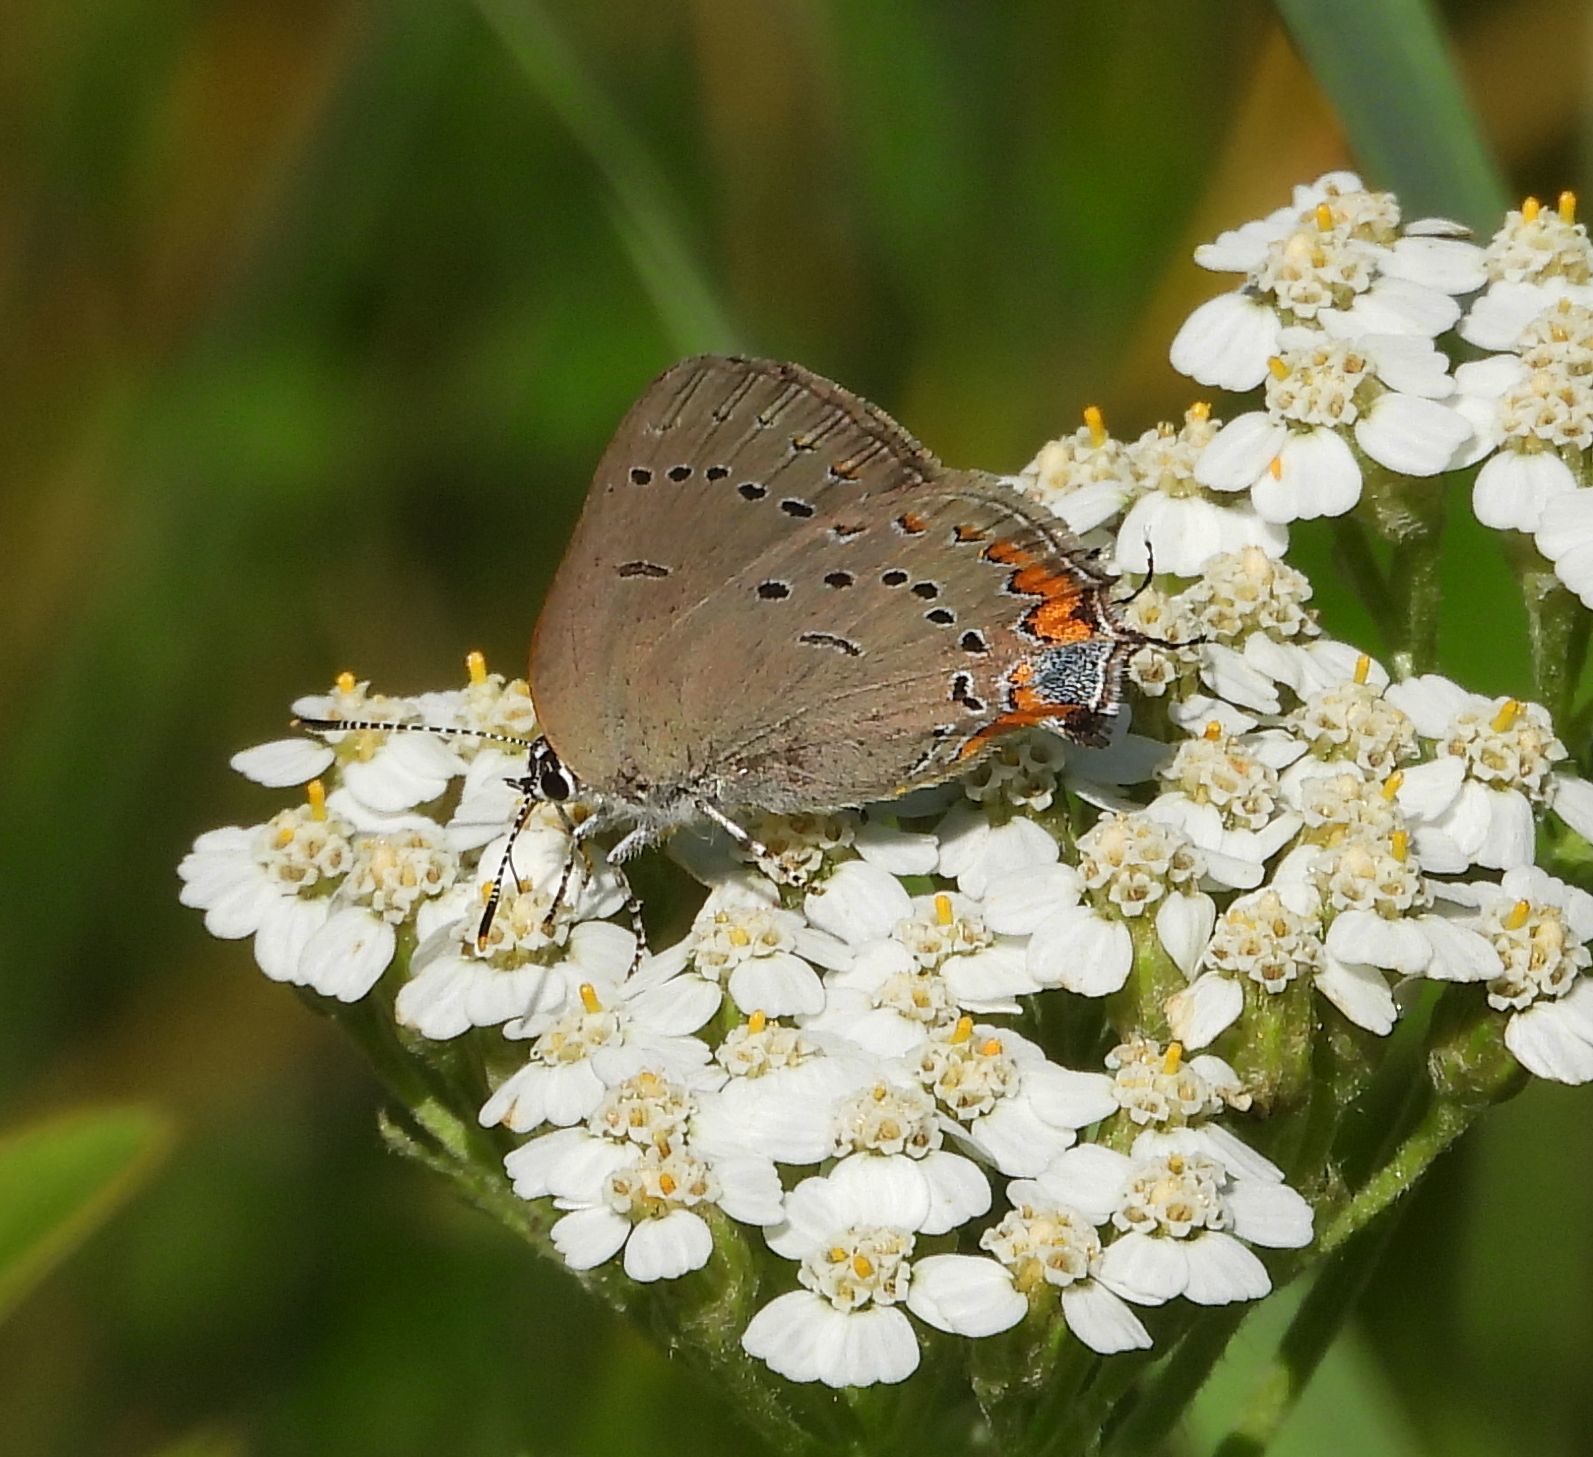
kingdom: Animalia
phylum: Arthropoda
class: Insecta
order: Lepidoptera
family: Lycaenidae
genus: Strymon
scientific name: Strymon acadica
